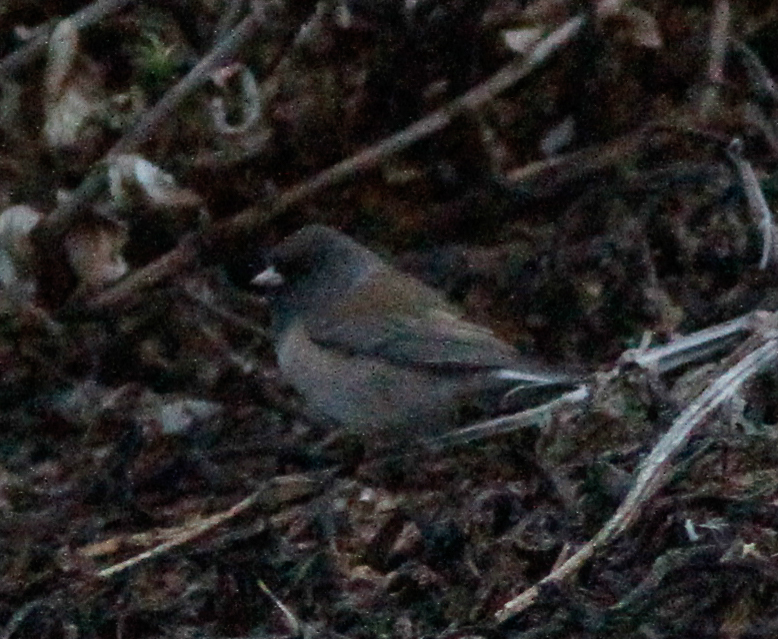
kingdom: Animalia
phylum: Chordata
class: Aves
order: Passeriformes
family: Passerellidae
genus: Junco
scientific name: Junco hyemalis
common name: Dark-eyed junco
